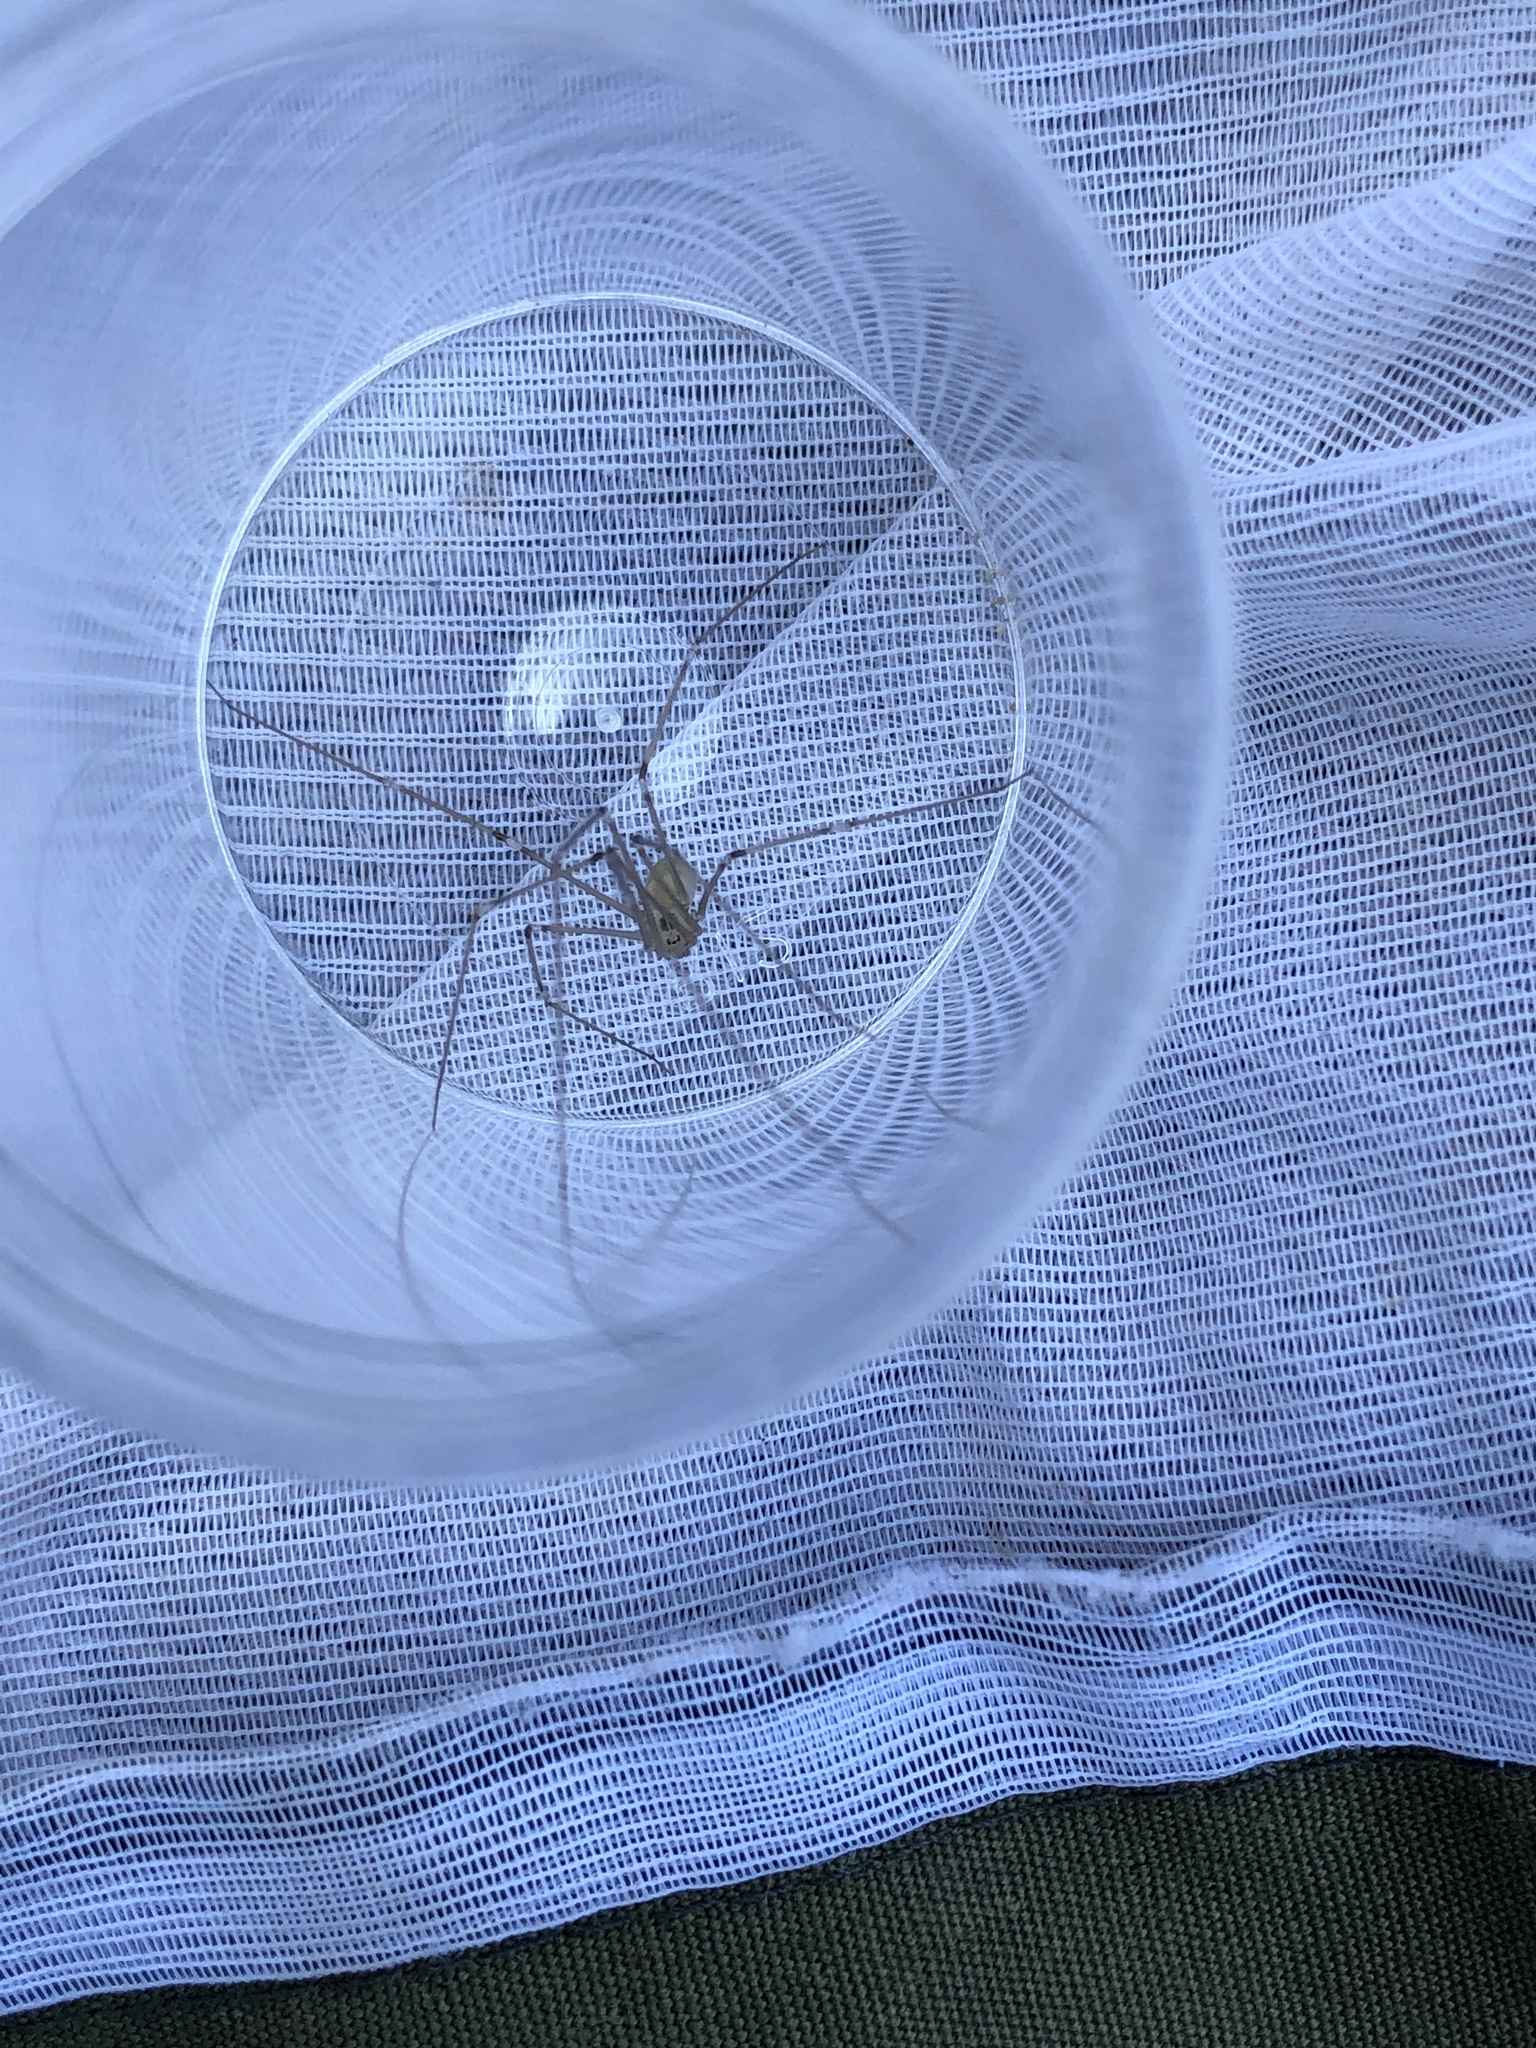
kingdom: Animalia
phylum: Arthropoda
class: Arachnida
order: Araneae
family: Pholcidae
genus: Pholcus
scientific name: Pholcus phalangioides
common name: Longbodied cellar spider
